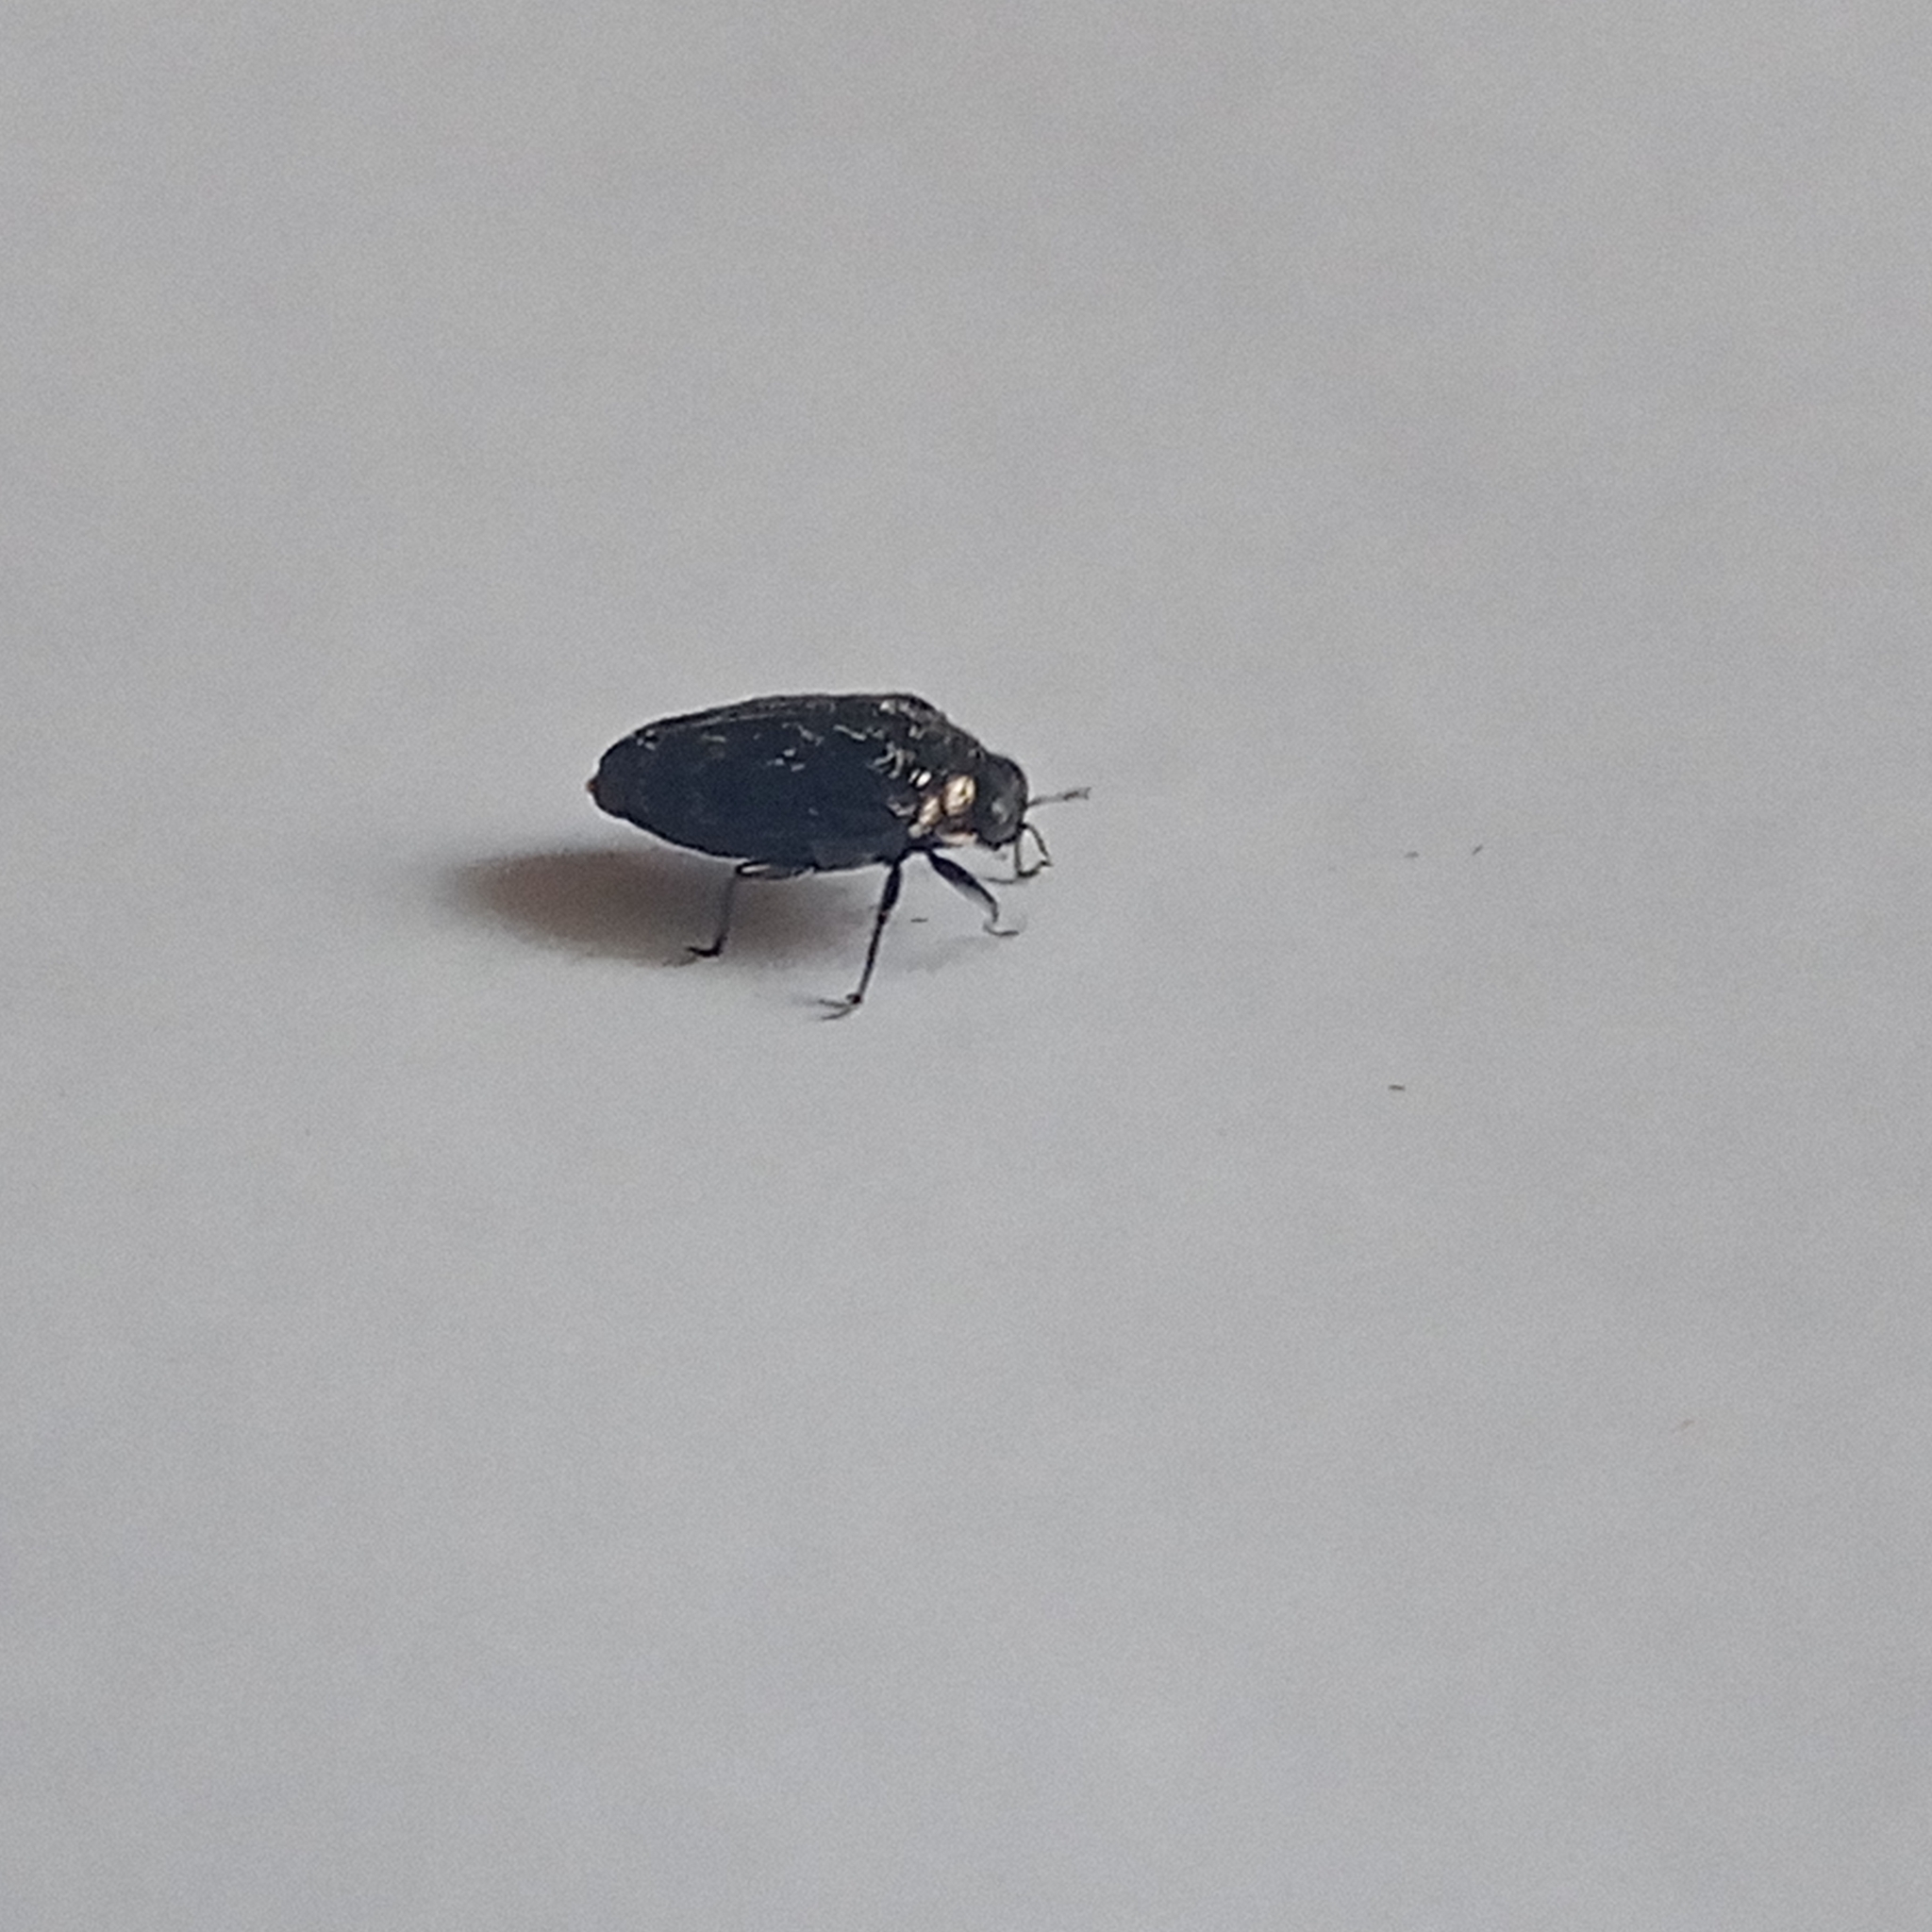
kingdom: Animalia
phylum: Arthropoda
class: Insecta
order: Coleoptera
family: Buprestidae
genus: Trachys
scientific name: Trachys minutus
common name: Metallic wood-boring beetle
